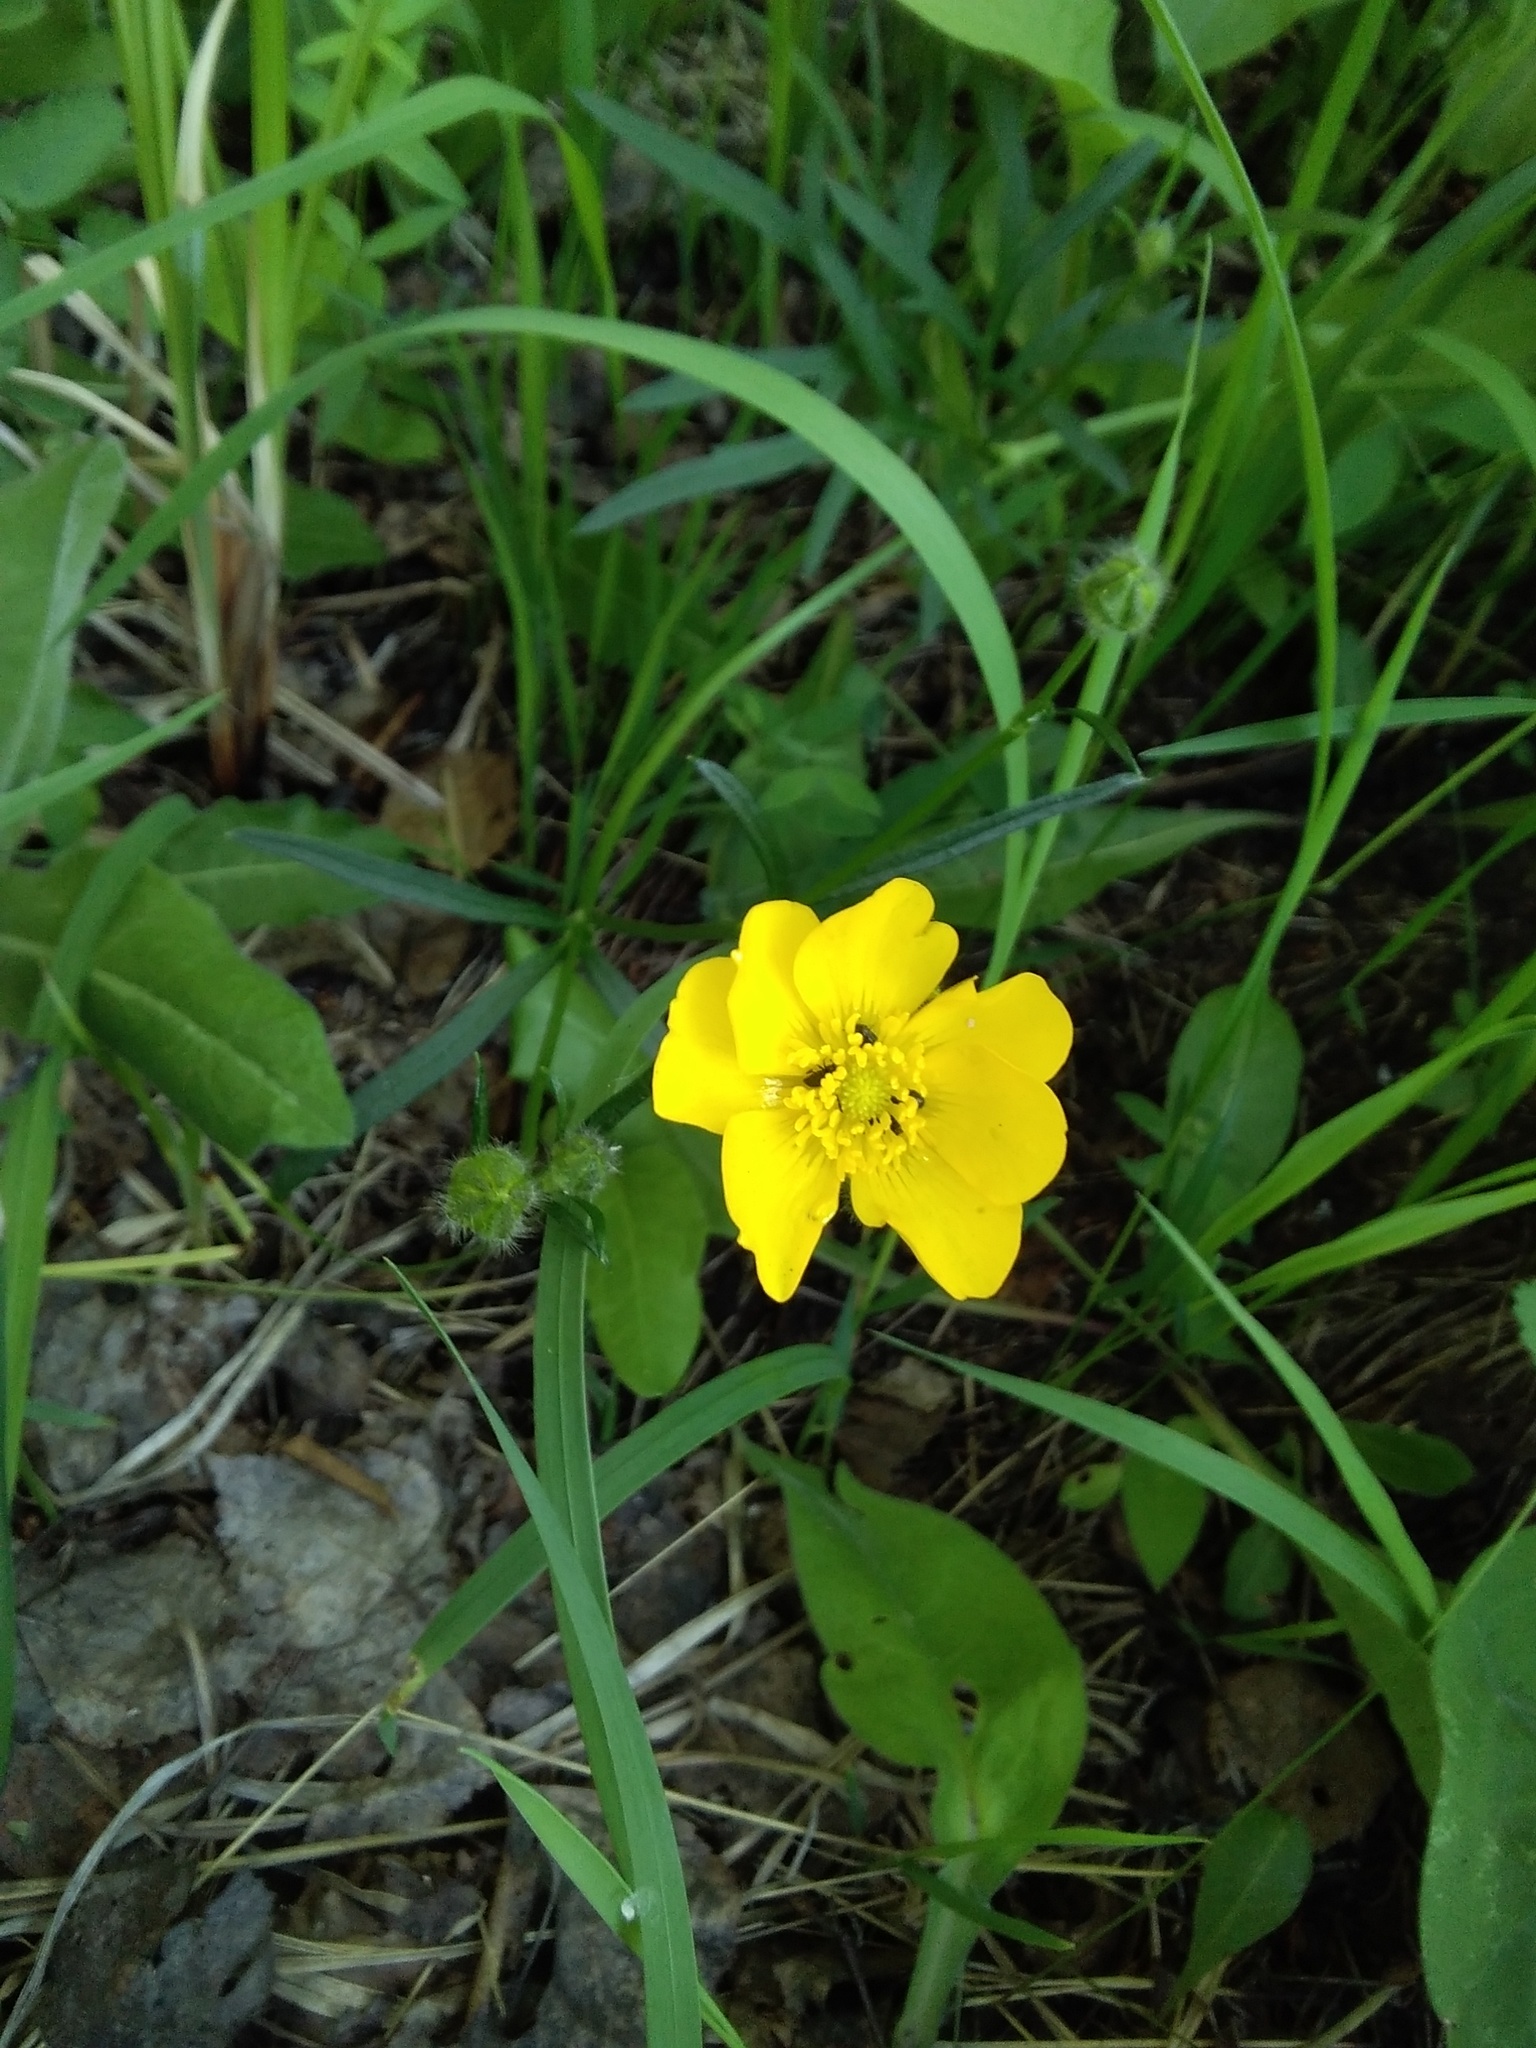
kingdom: Plantae
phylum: Tracheophyta
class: Magnoliopsida
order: Ranunculales
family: Ranunculaceae
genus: Ranunculus
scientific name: Ranunculus polyanthemos
